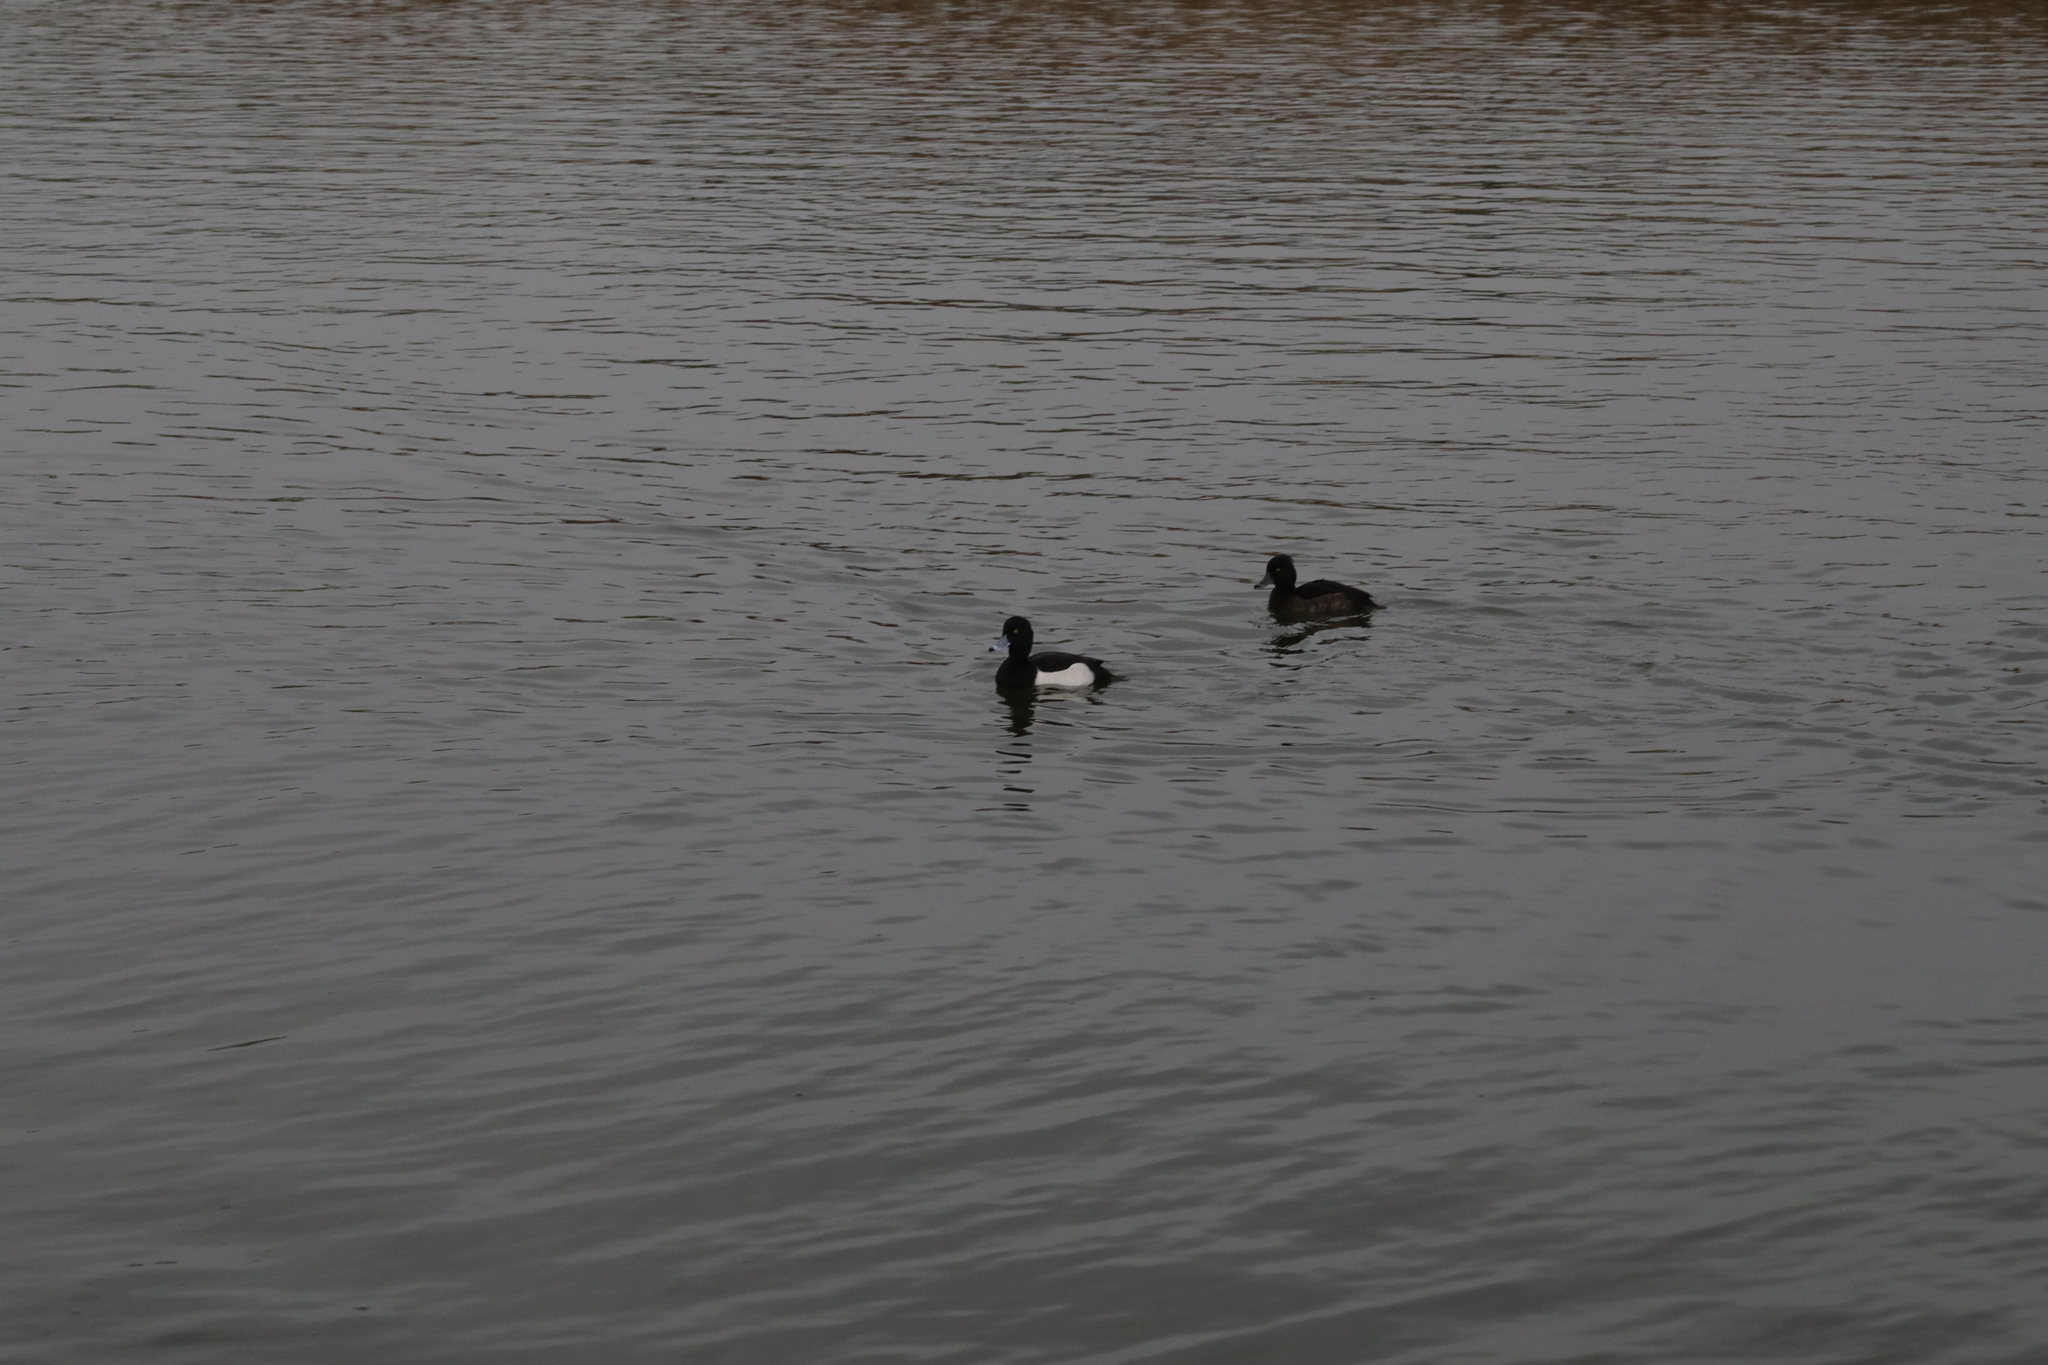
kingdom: Animalia
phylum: Chordata
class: Aves
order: Anseriformes
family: Anatidae
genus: Aythya
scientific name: Aythya fuligula
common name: Tufted duck
